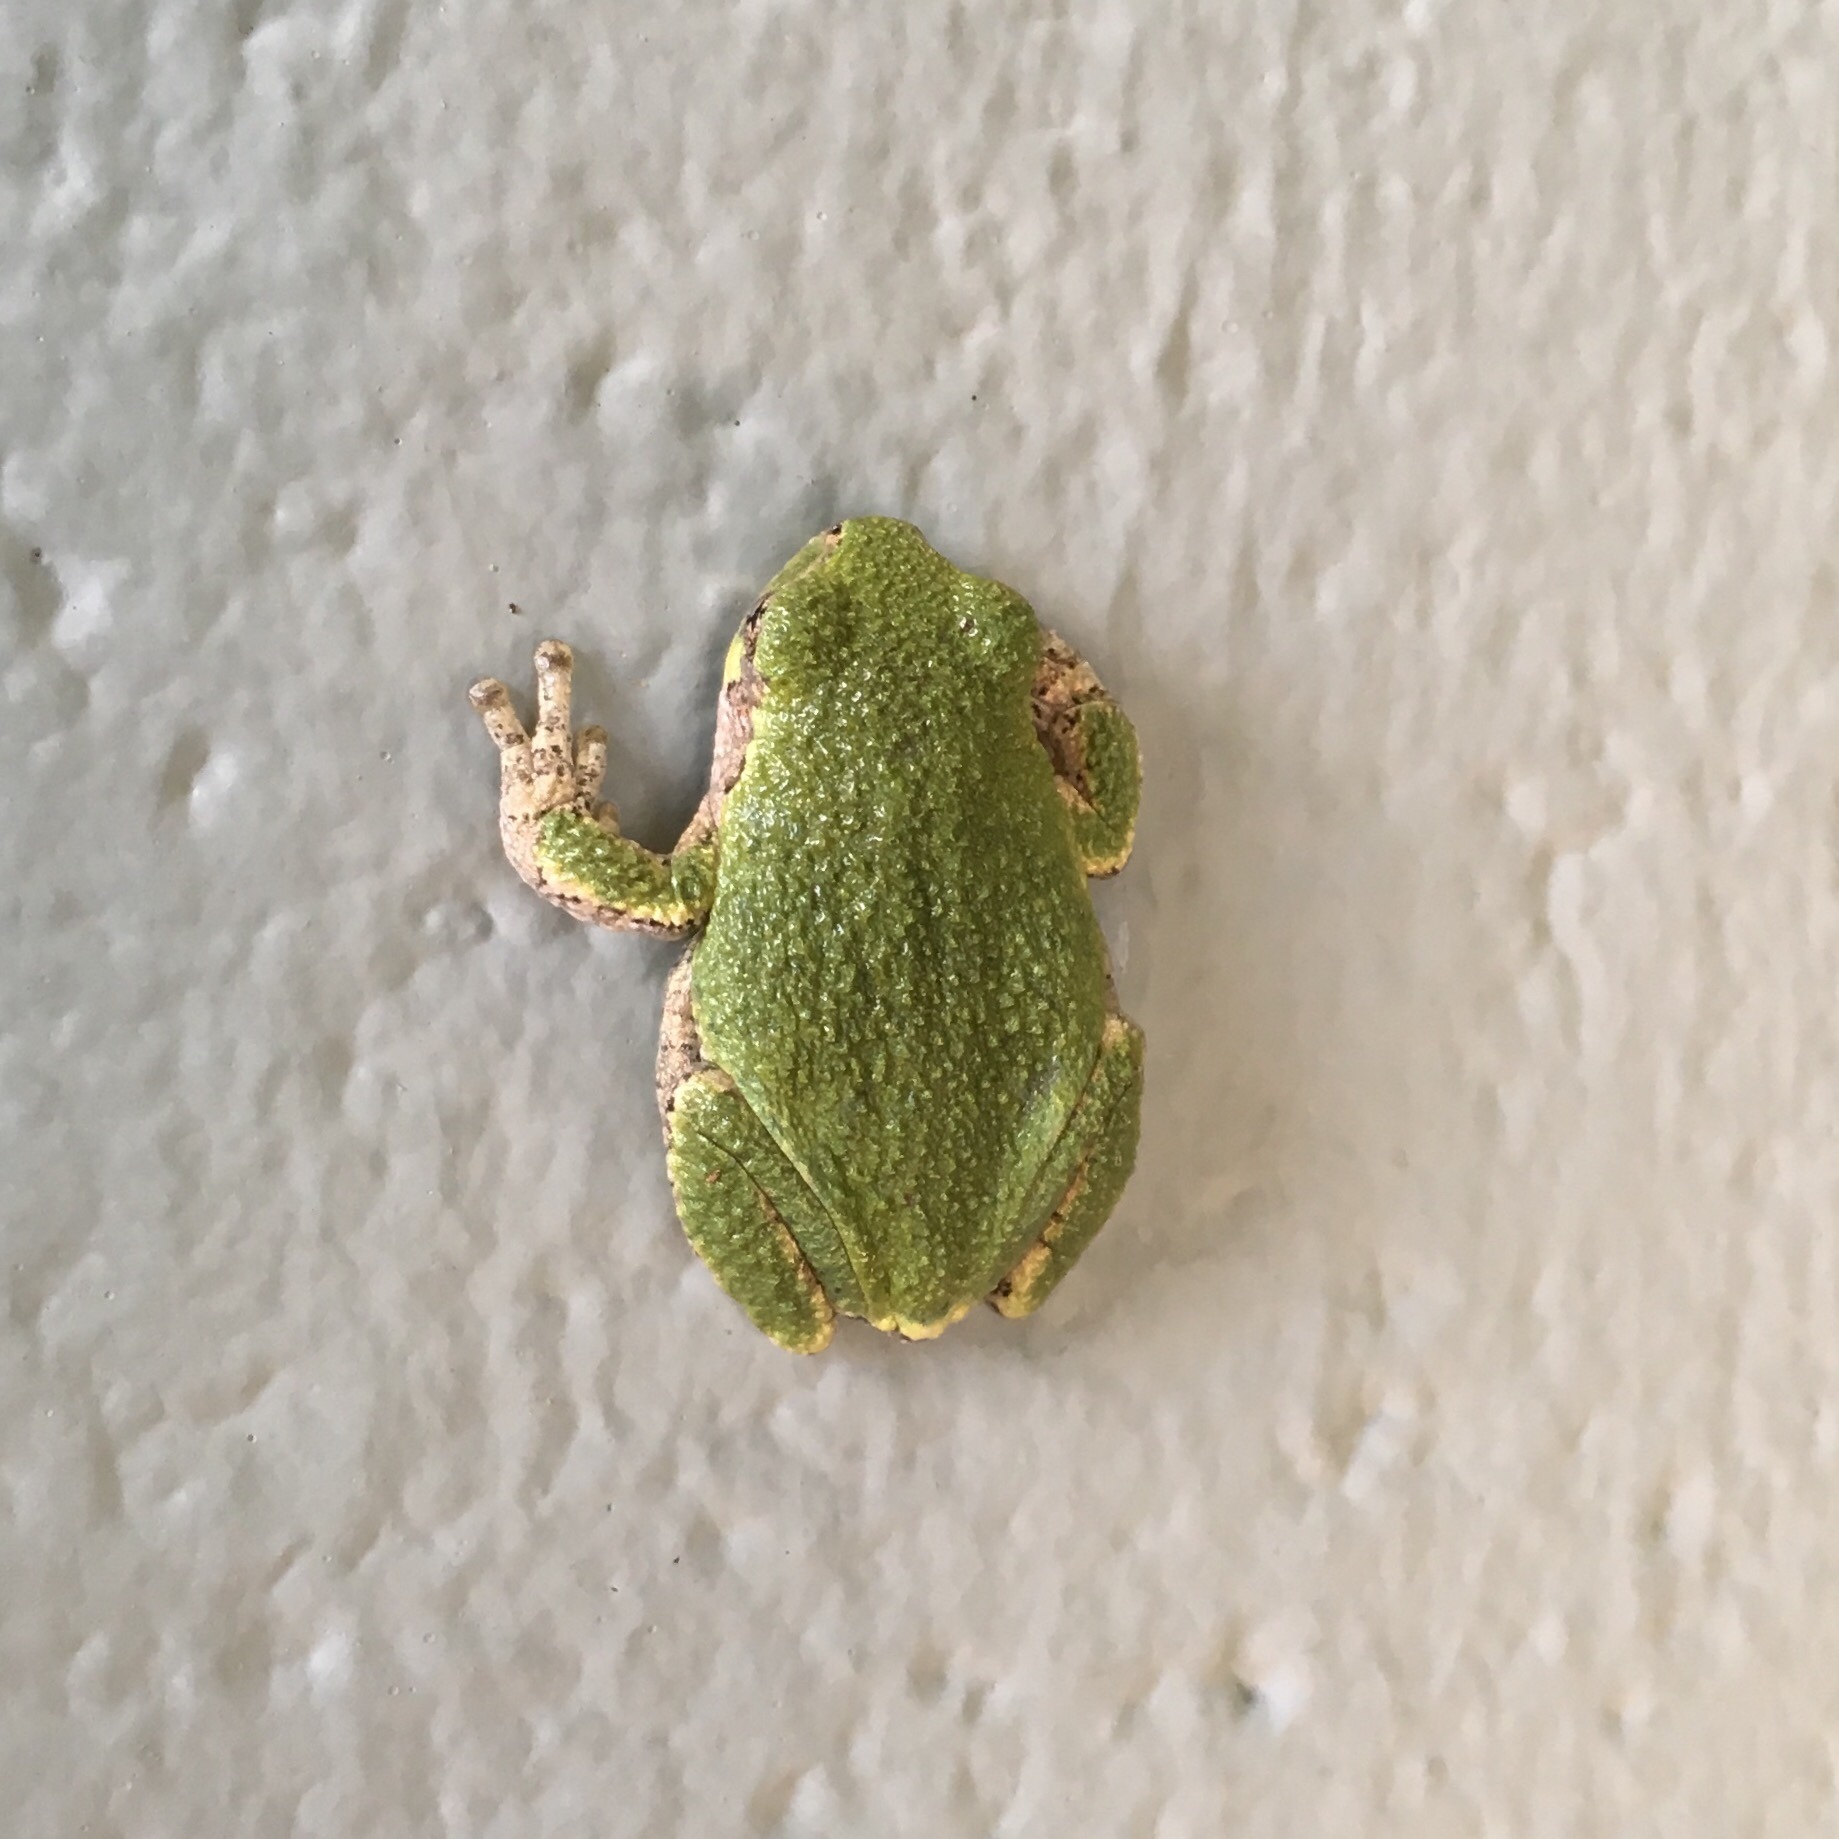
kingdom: Animalia
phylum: Chordata
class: Amphibia
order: Anura
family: Hylidae
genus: Dryophytes
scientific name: Dryophytes versicolor
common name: Gray treefrog
